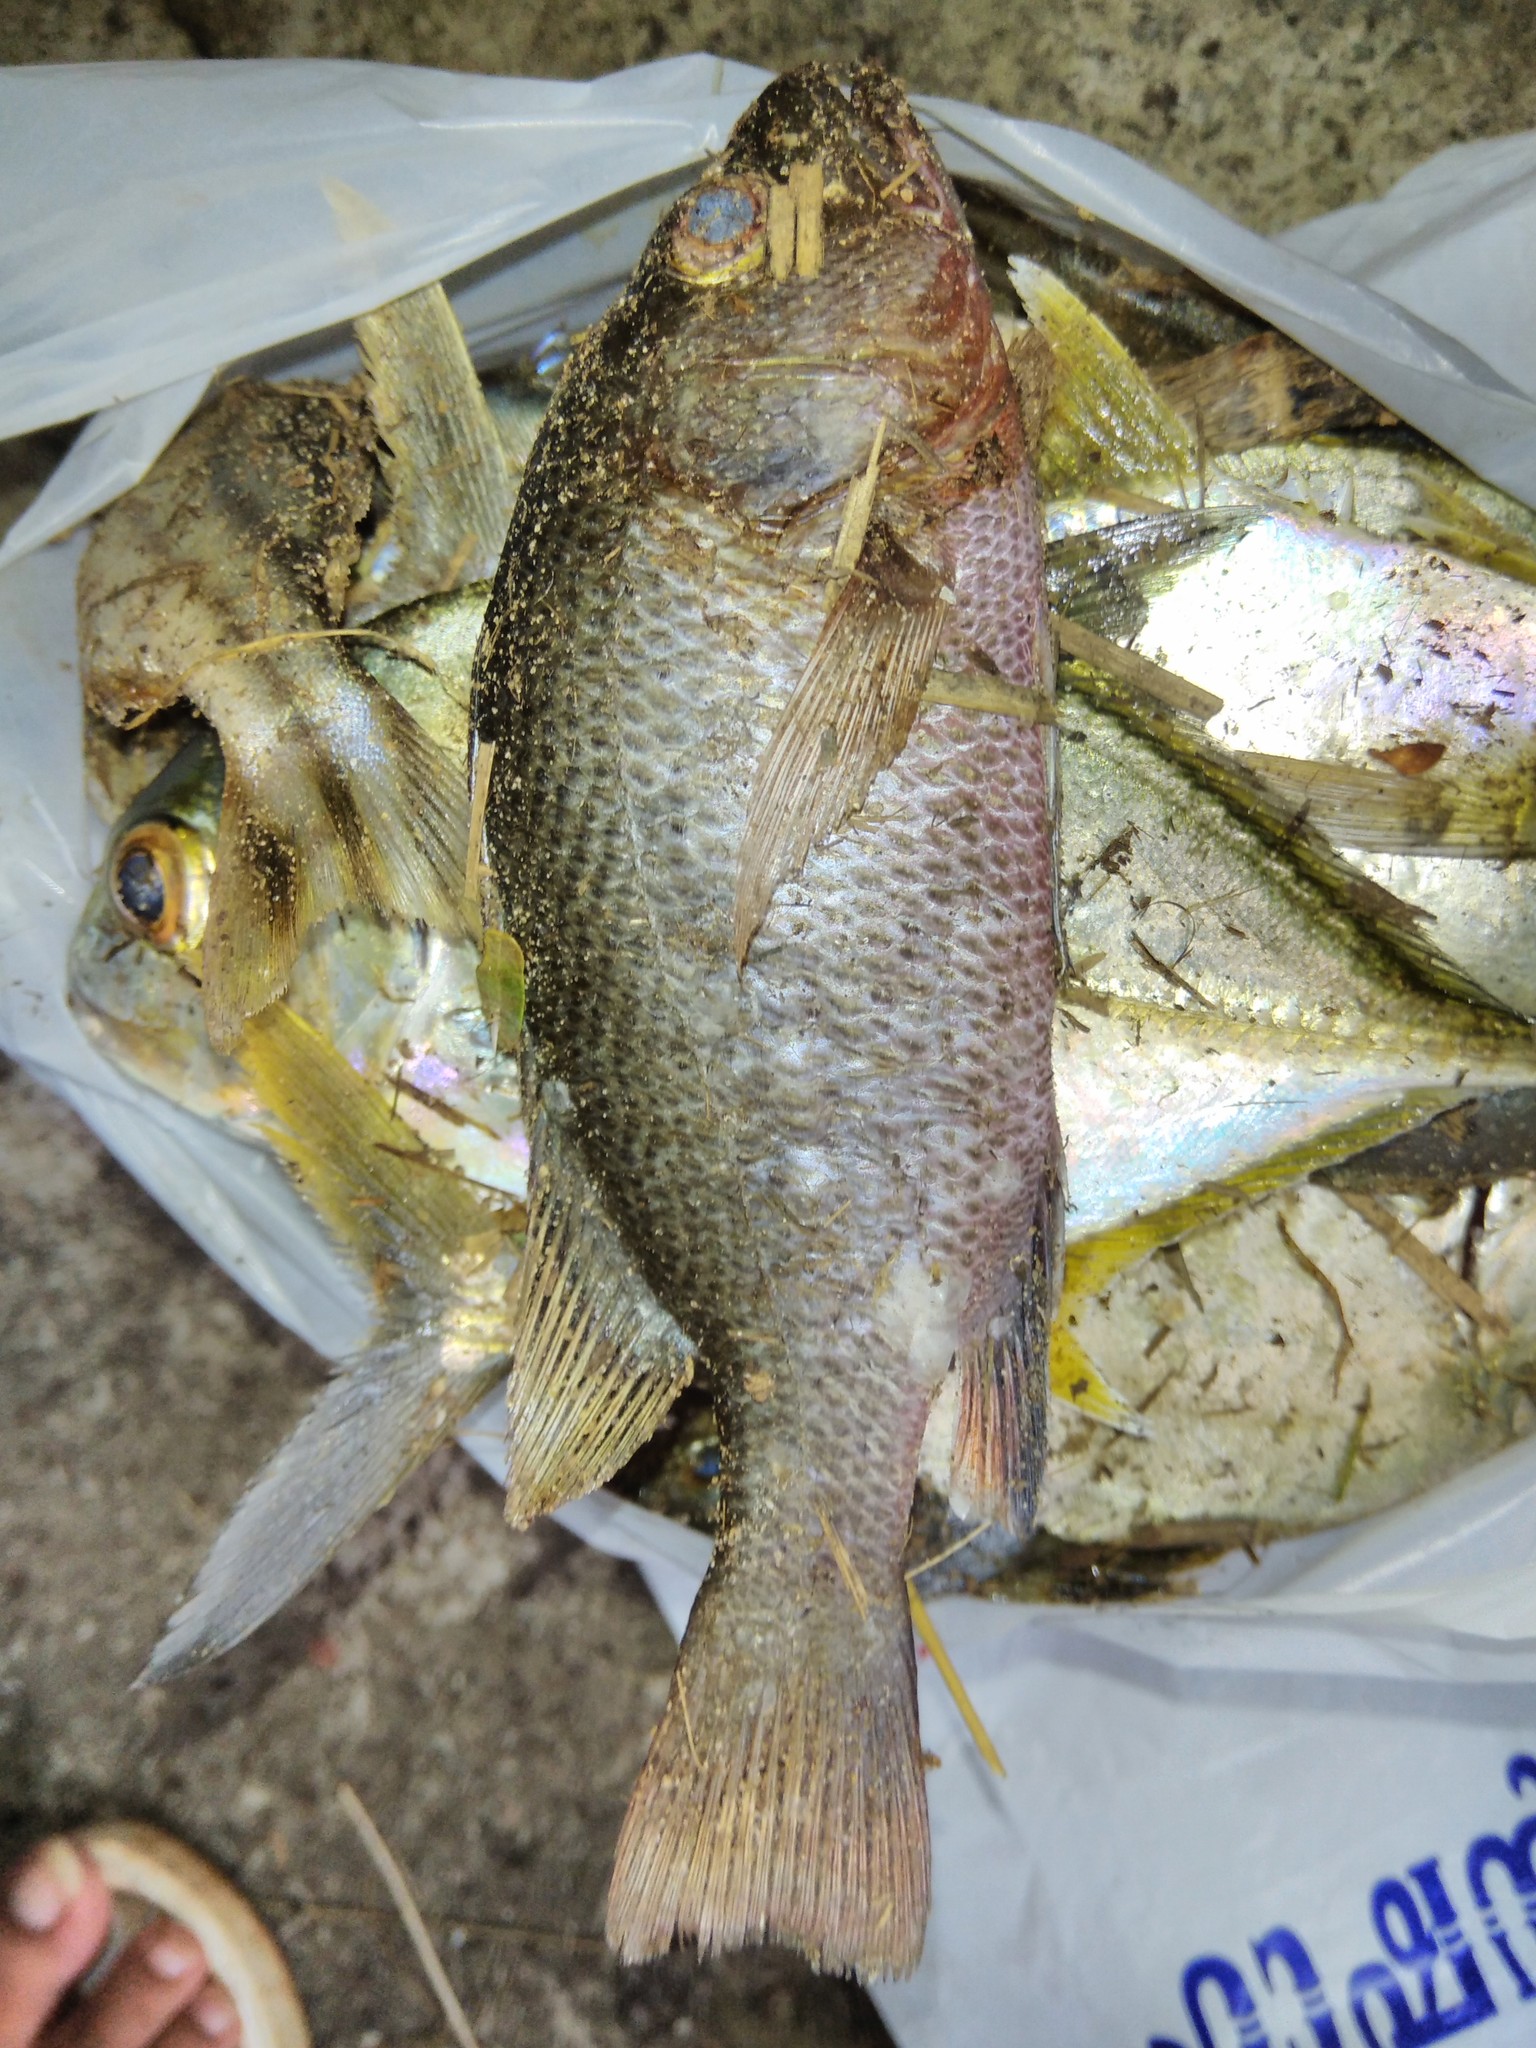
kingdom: Animalia
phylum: Chordata
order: Perciformes
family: Lutjanidae
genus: Lutjanus
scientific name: Lutjanus argentimaculatus
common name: Mangrove red snapper
